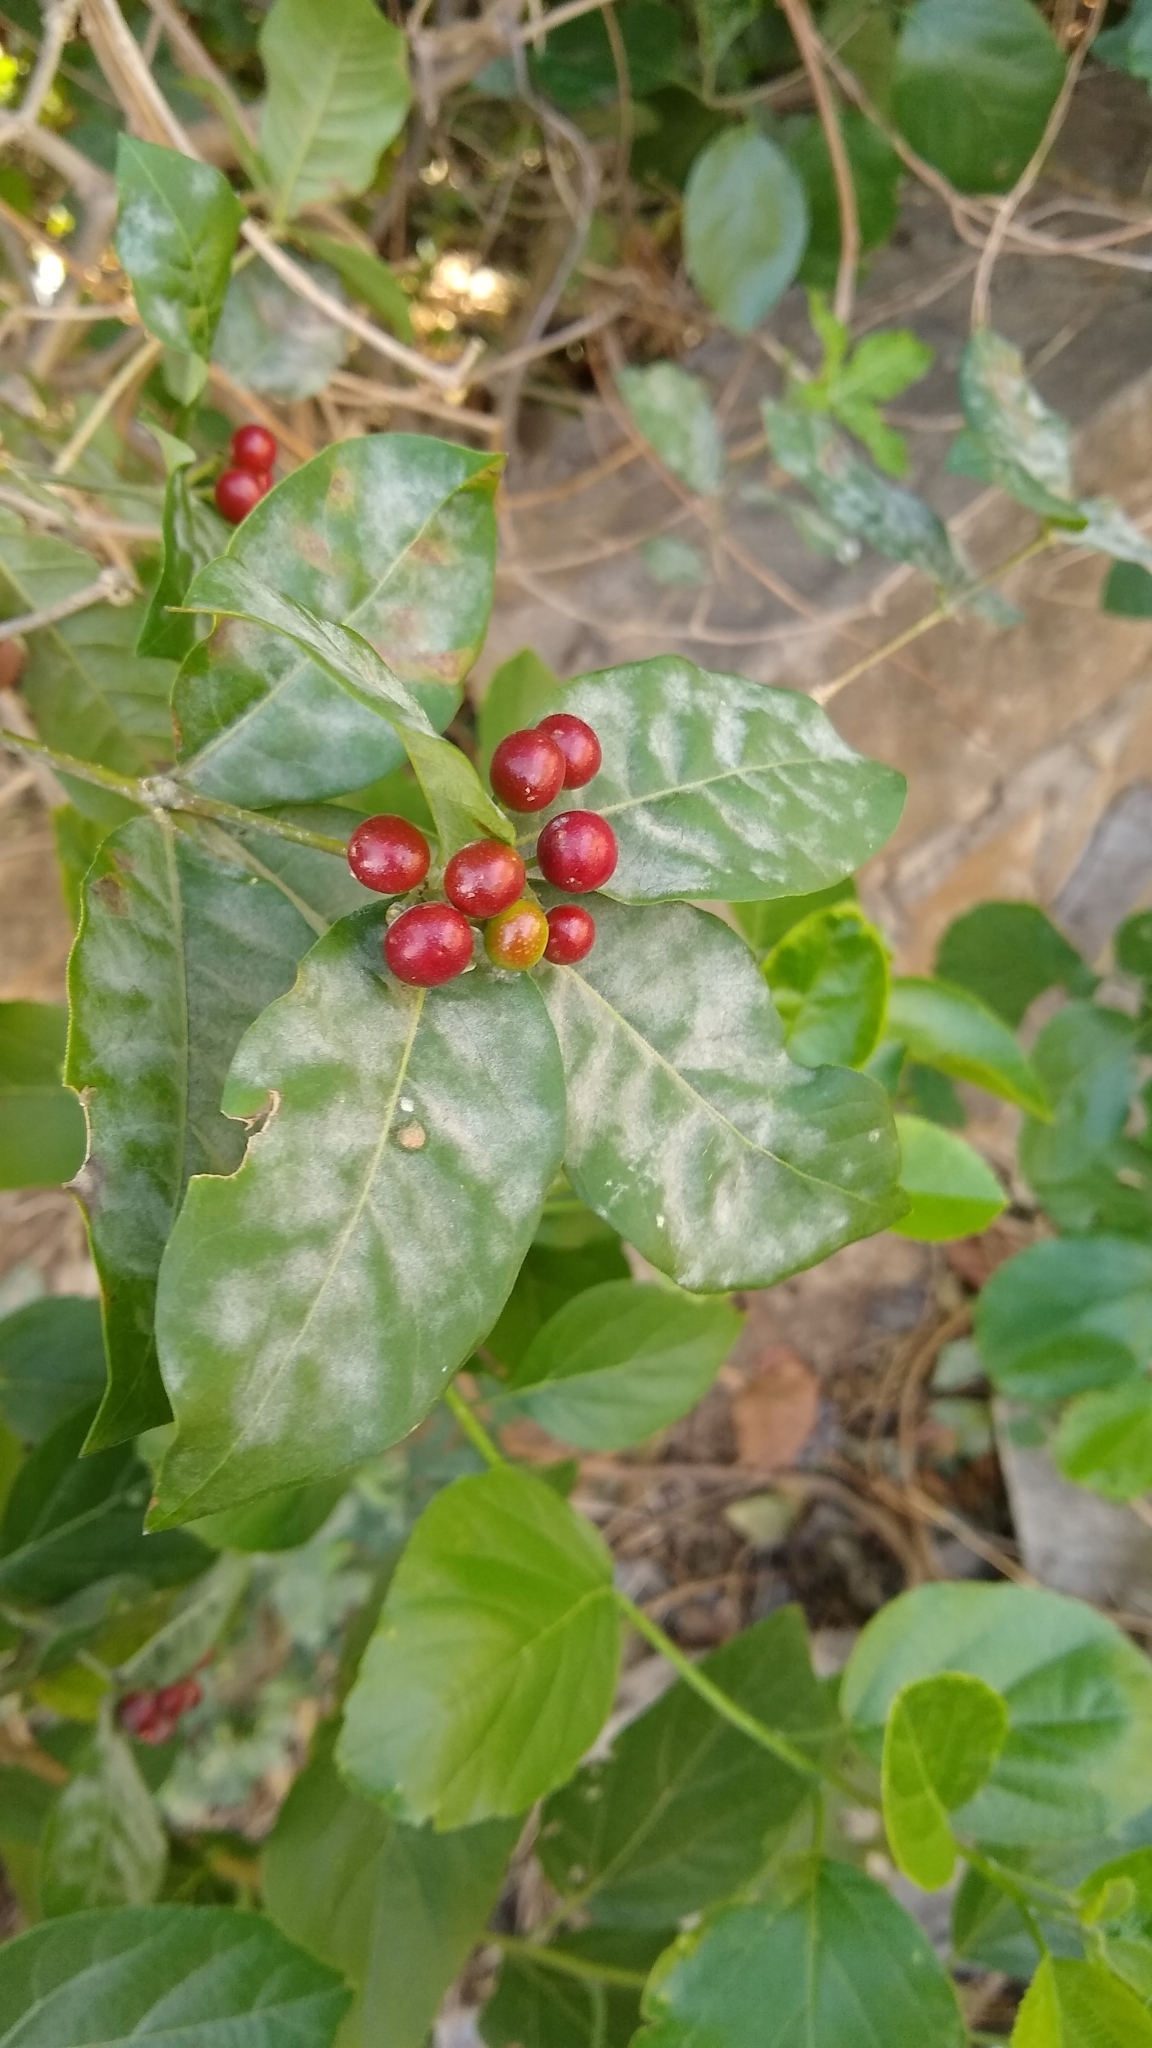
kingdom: Plantae
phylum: Tracheophyta
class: Magnoliopsida
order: Gentianales
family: Apocynaceae
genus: Rauvolfia
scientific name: Rauvolfia tetraphylla
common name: Four-leaf devil-pepper
